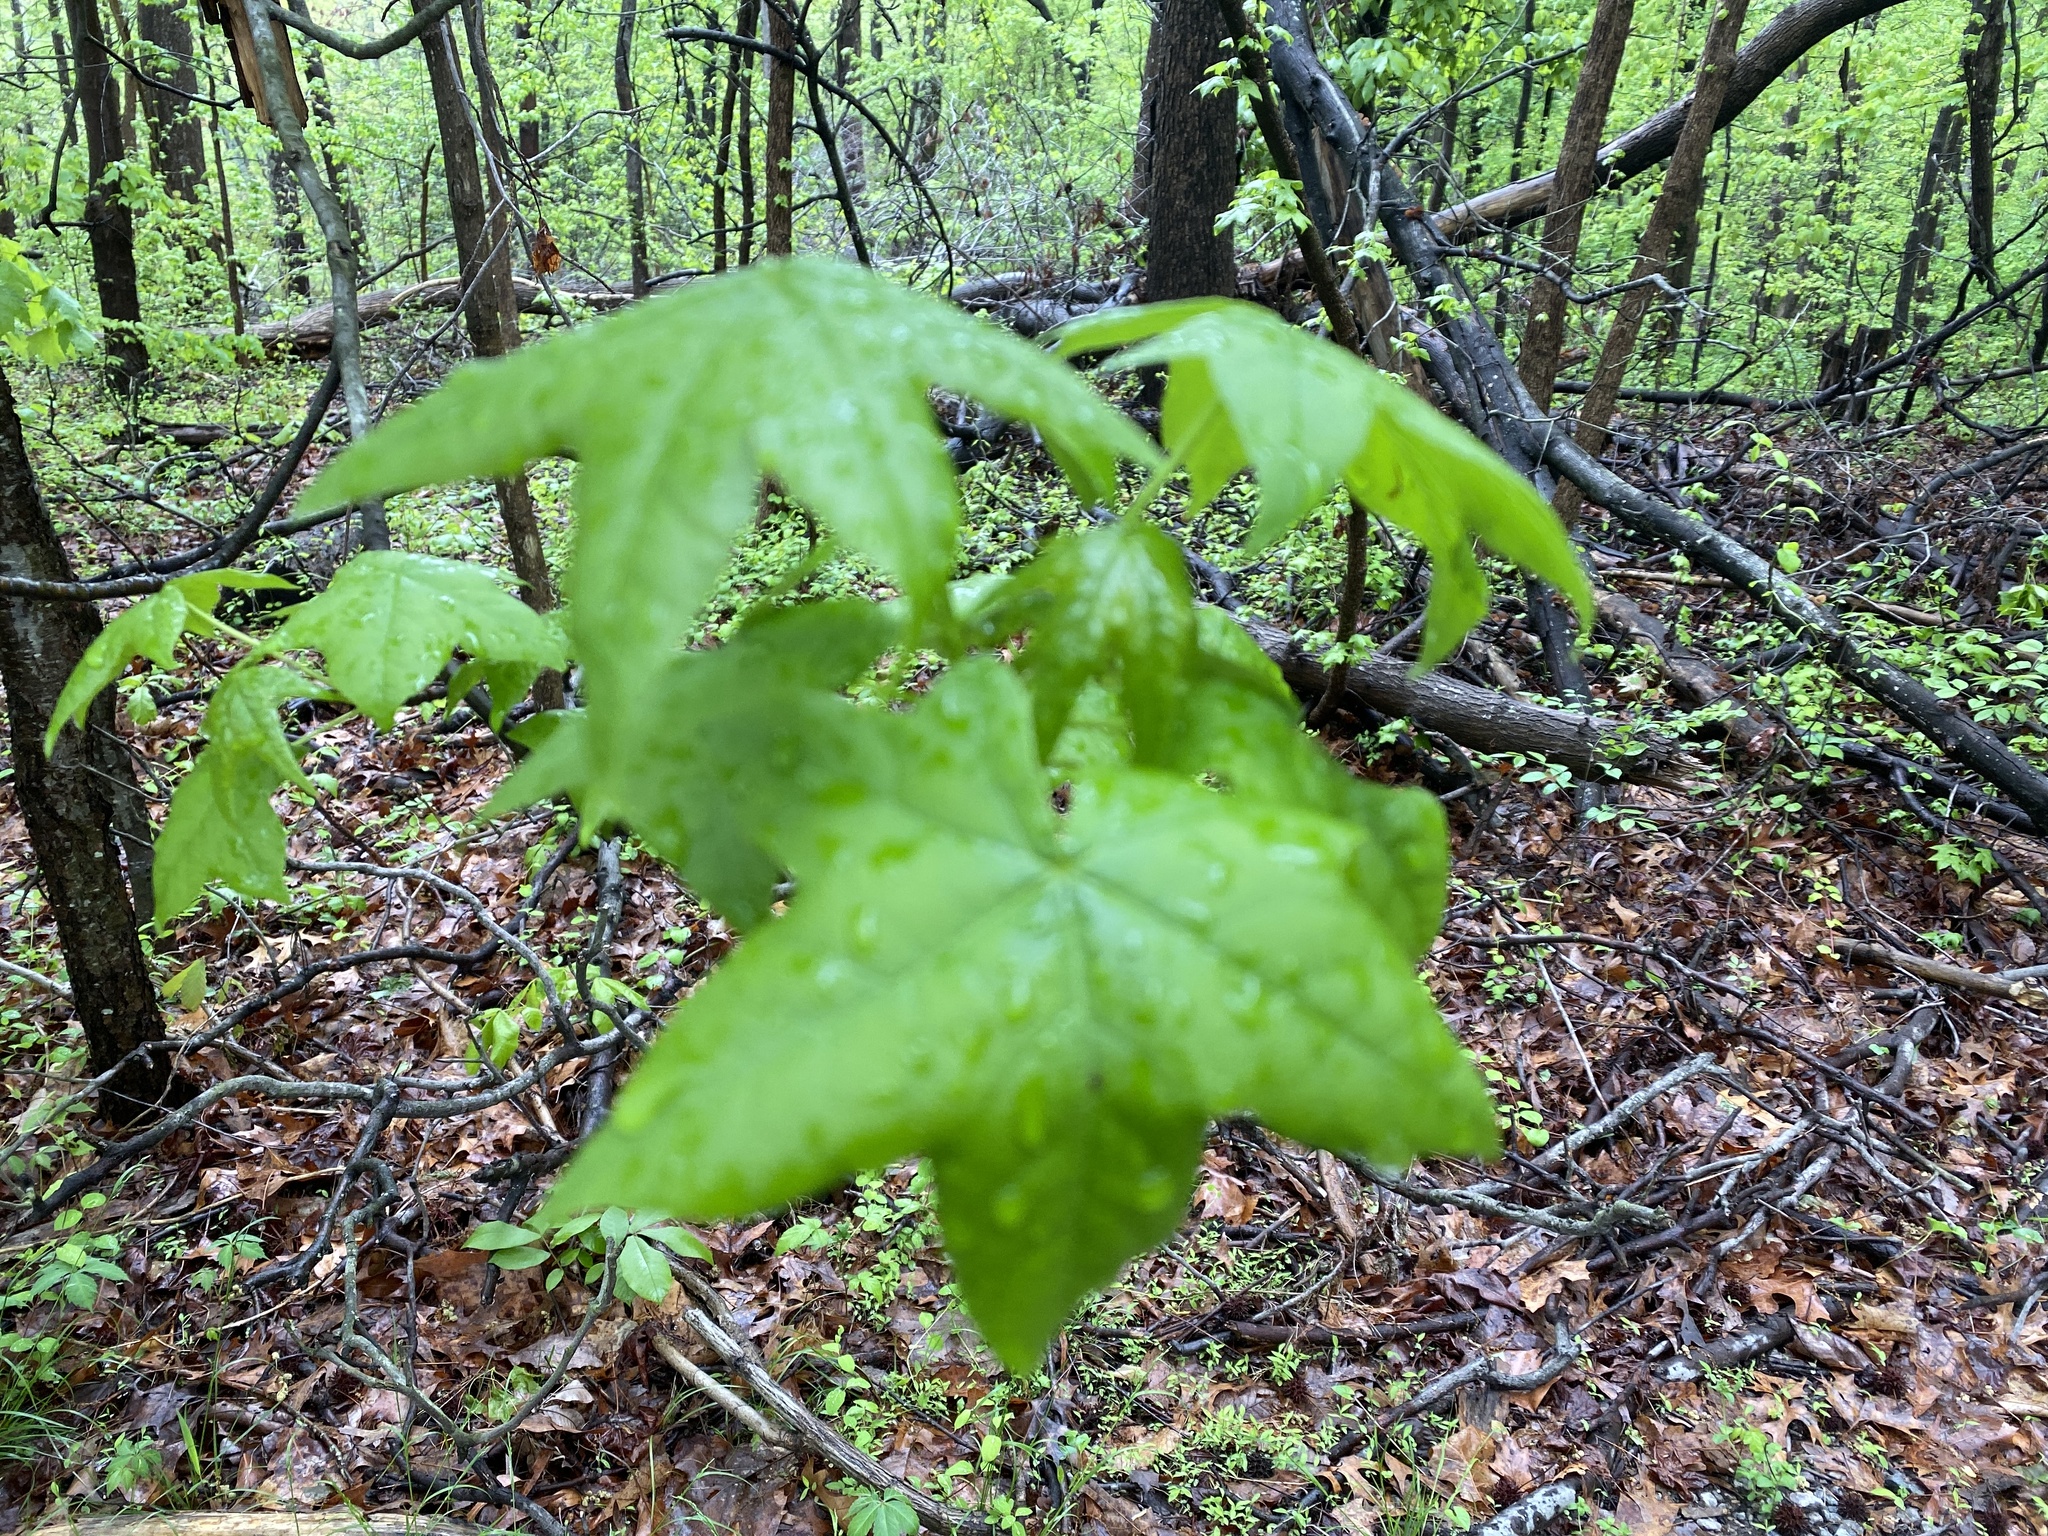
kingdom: Plantae
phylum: Tracheophyta
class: Magnoliopsida
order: Saxifragales
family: Altingiaceae
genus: Liquidambar
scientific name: Liquidambar styraciflua
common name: Sweet gum
